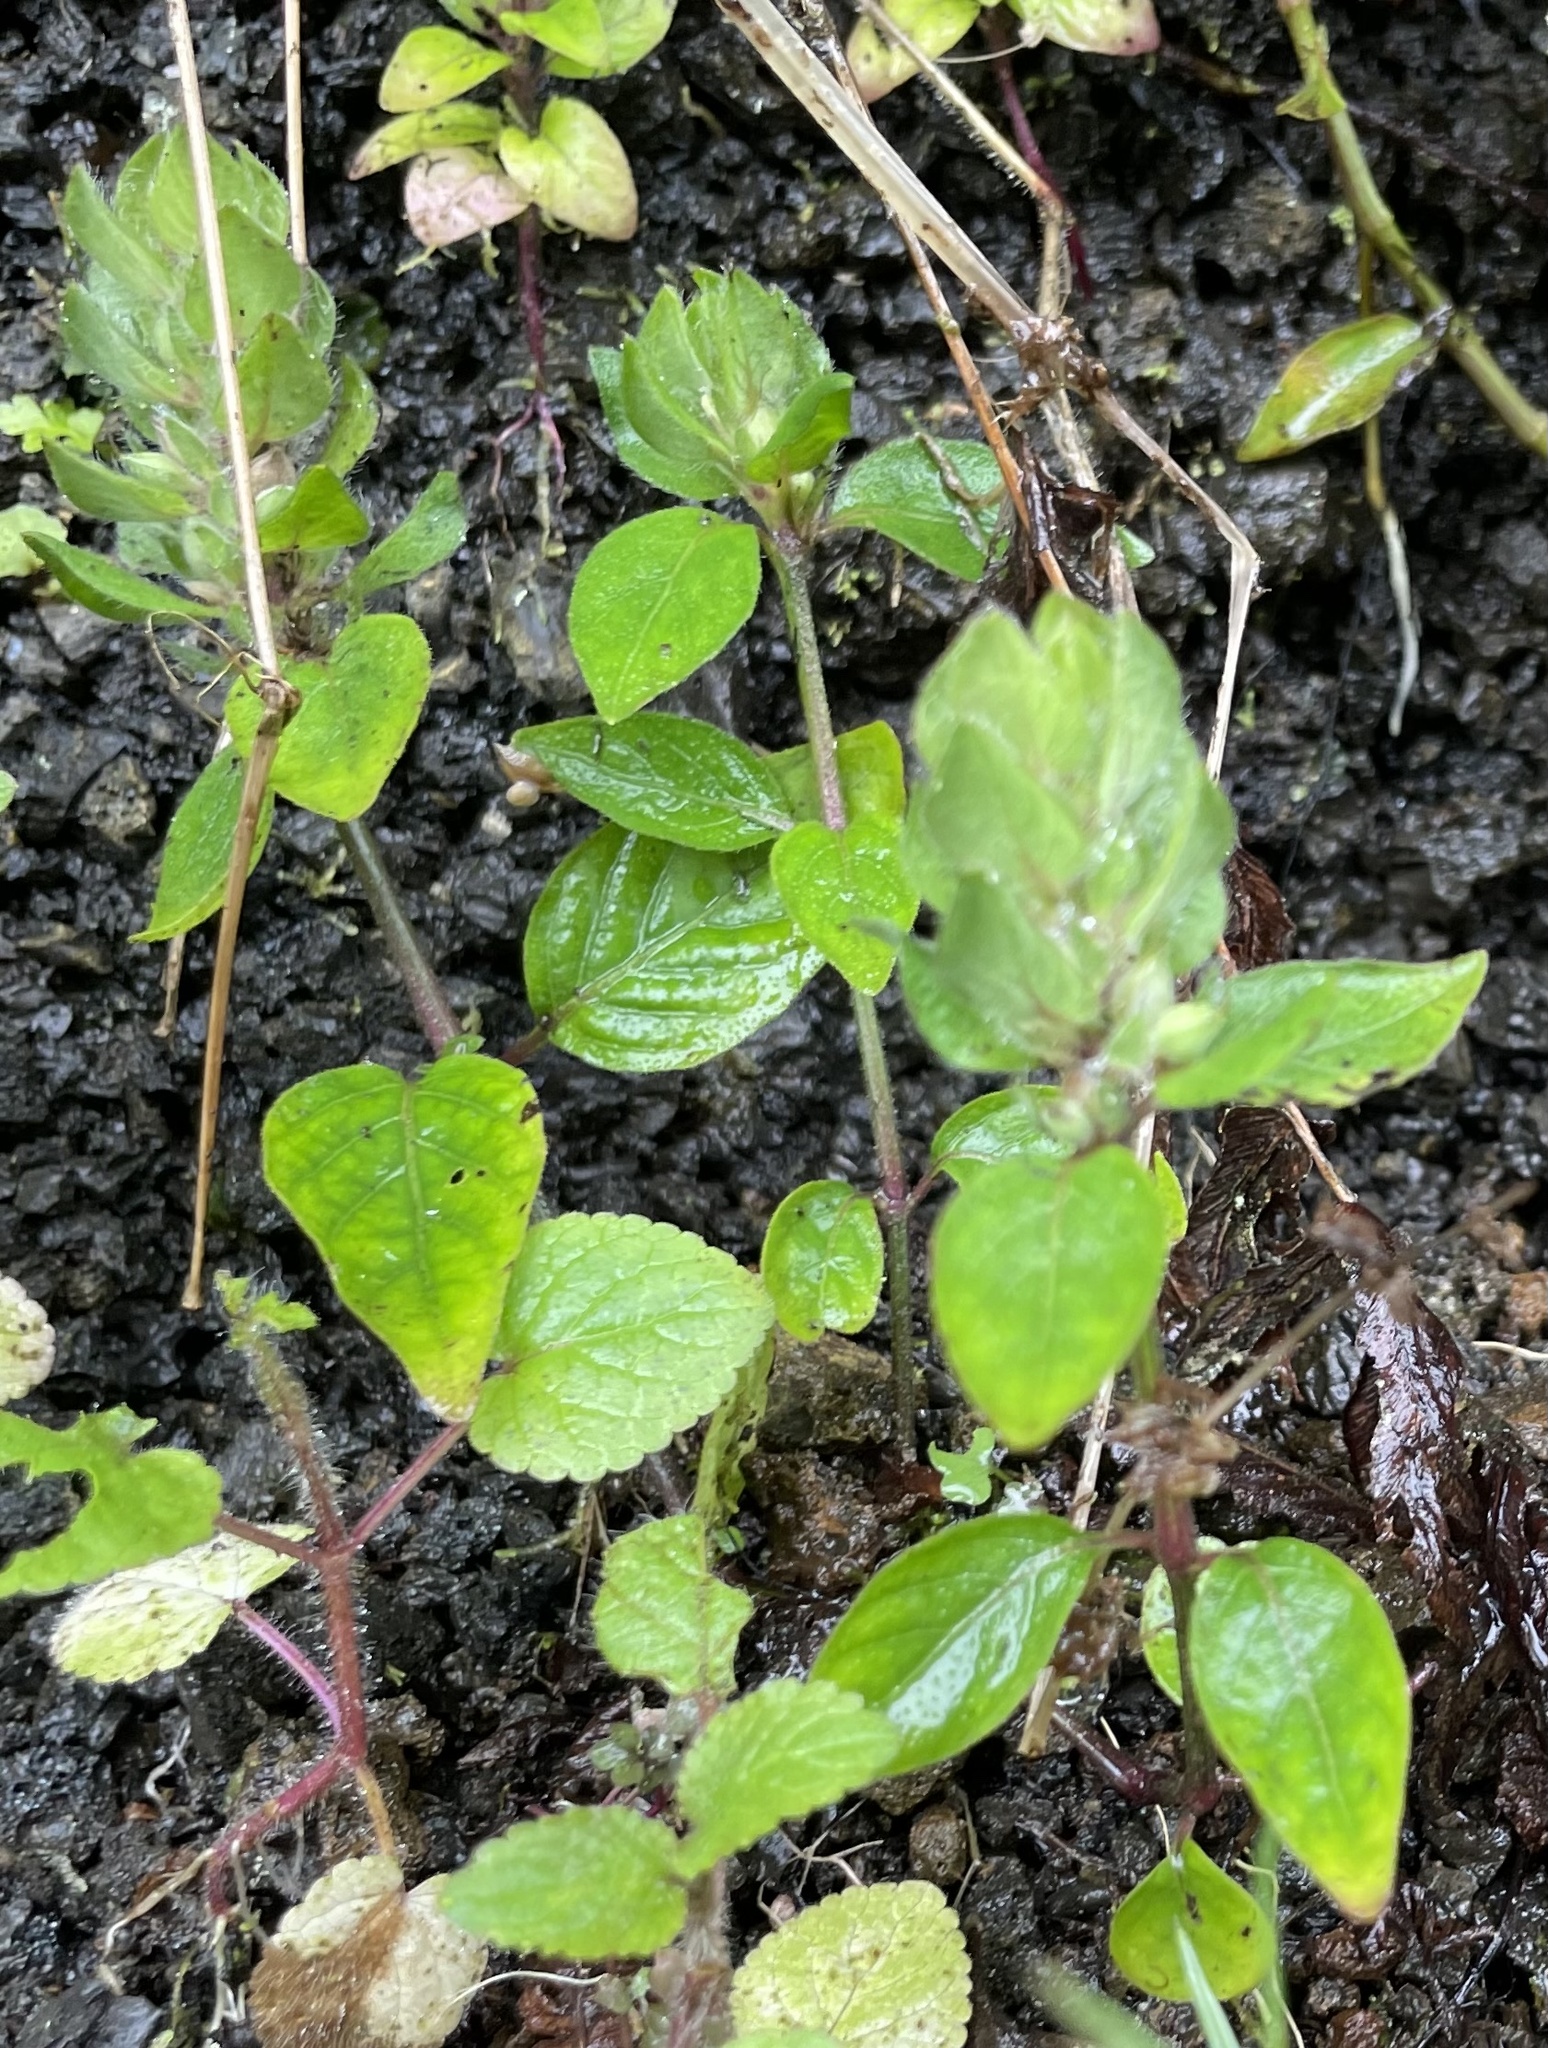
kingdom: Plantae
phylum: Tracheophyta
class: Magnoliopsida
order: Lamiales
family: Acanthaceae
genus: Ruellia
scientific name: Ruellia blechum
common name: Browne's blechum
